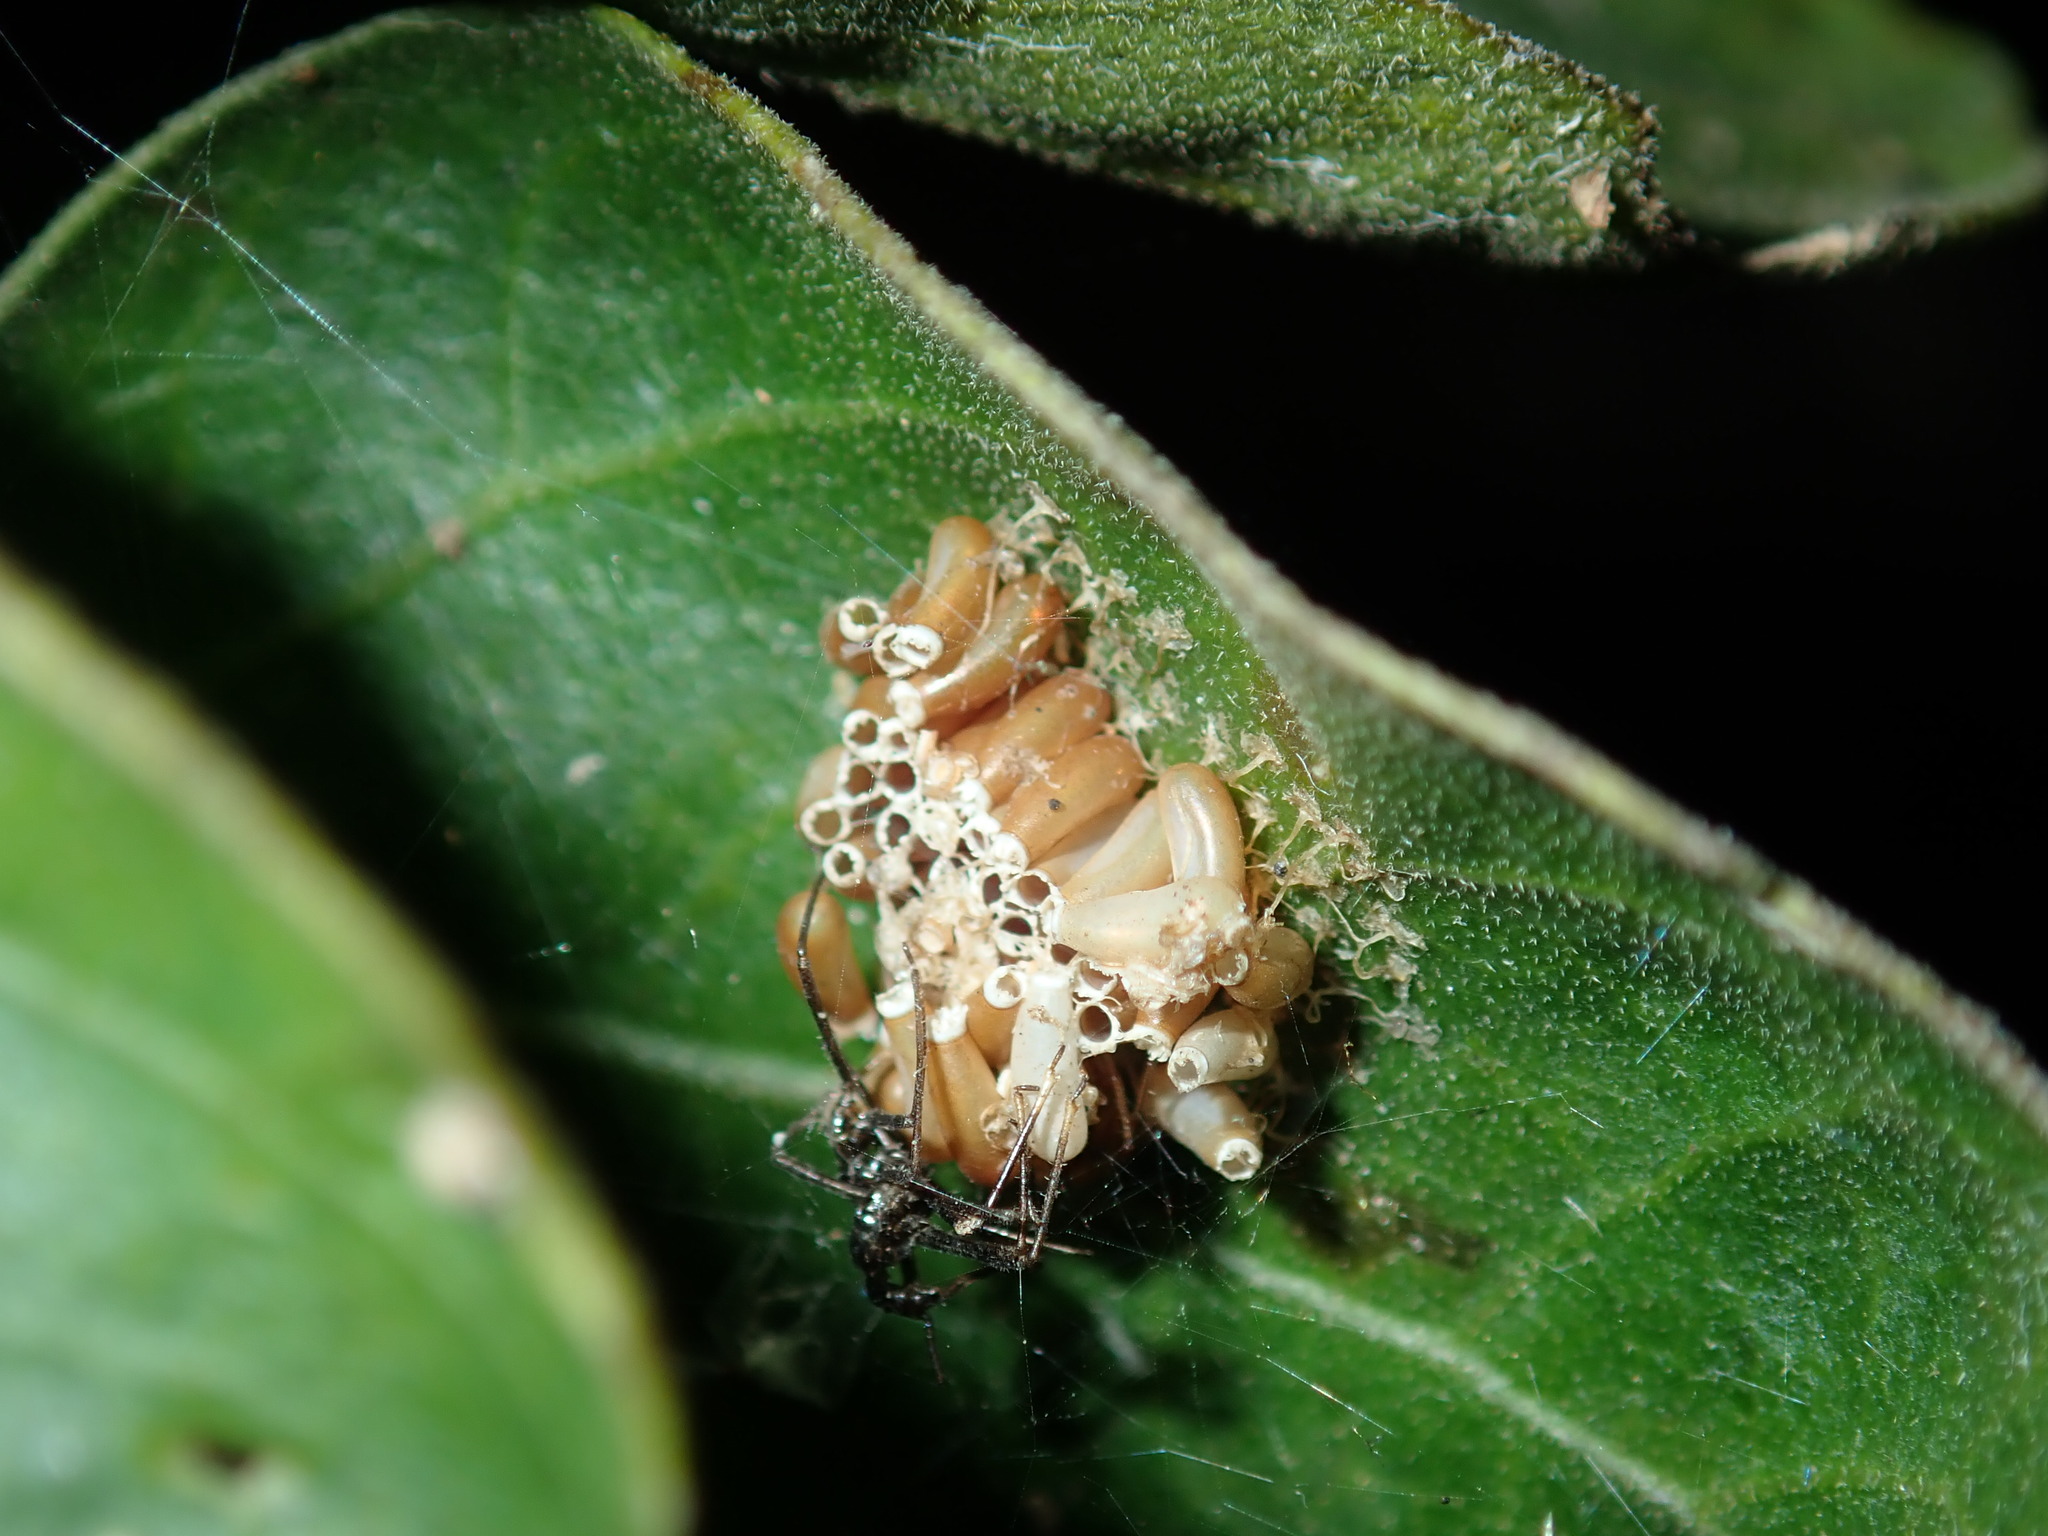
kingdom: Animalia
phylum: Arthropoda
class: Insecta
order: Hemiptera
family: Reduviidae
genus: Pristhesancus
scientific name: Pristhesancus plagipennis
